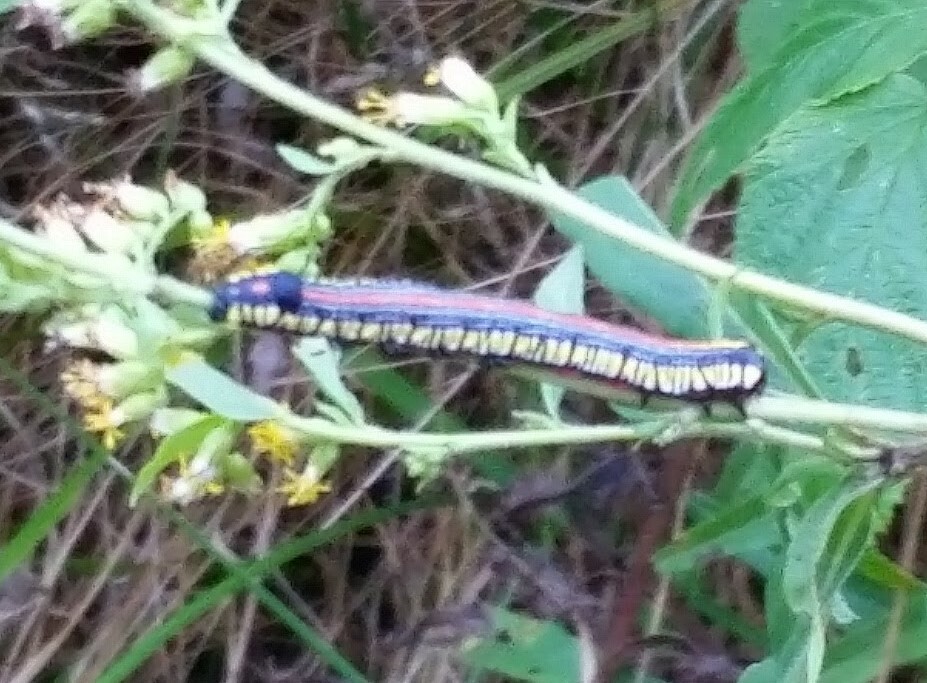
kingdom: Animalia
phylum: Arthropoda
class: Insecta
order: Lepidoptera
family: Noctuidae
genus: Cucullia
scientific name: Cucullia convexipennis
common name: Brown-hooded owlet
